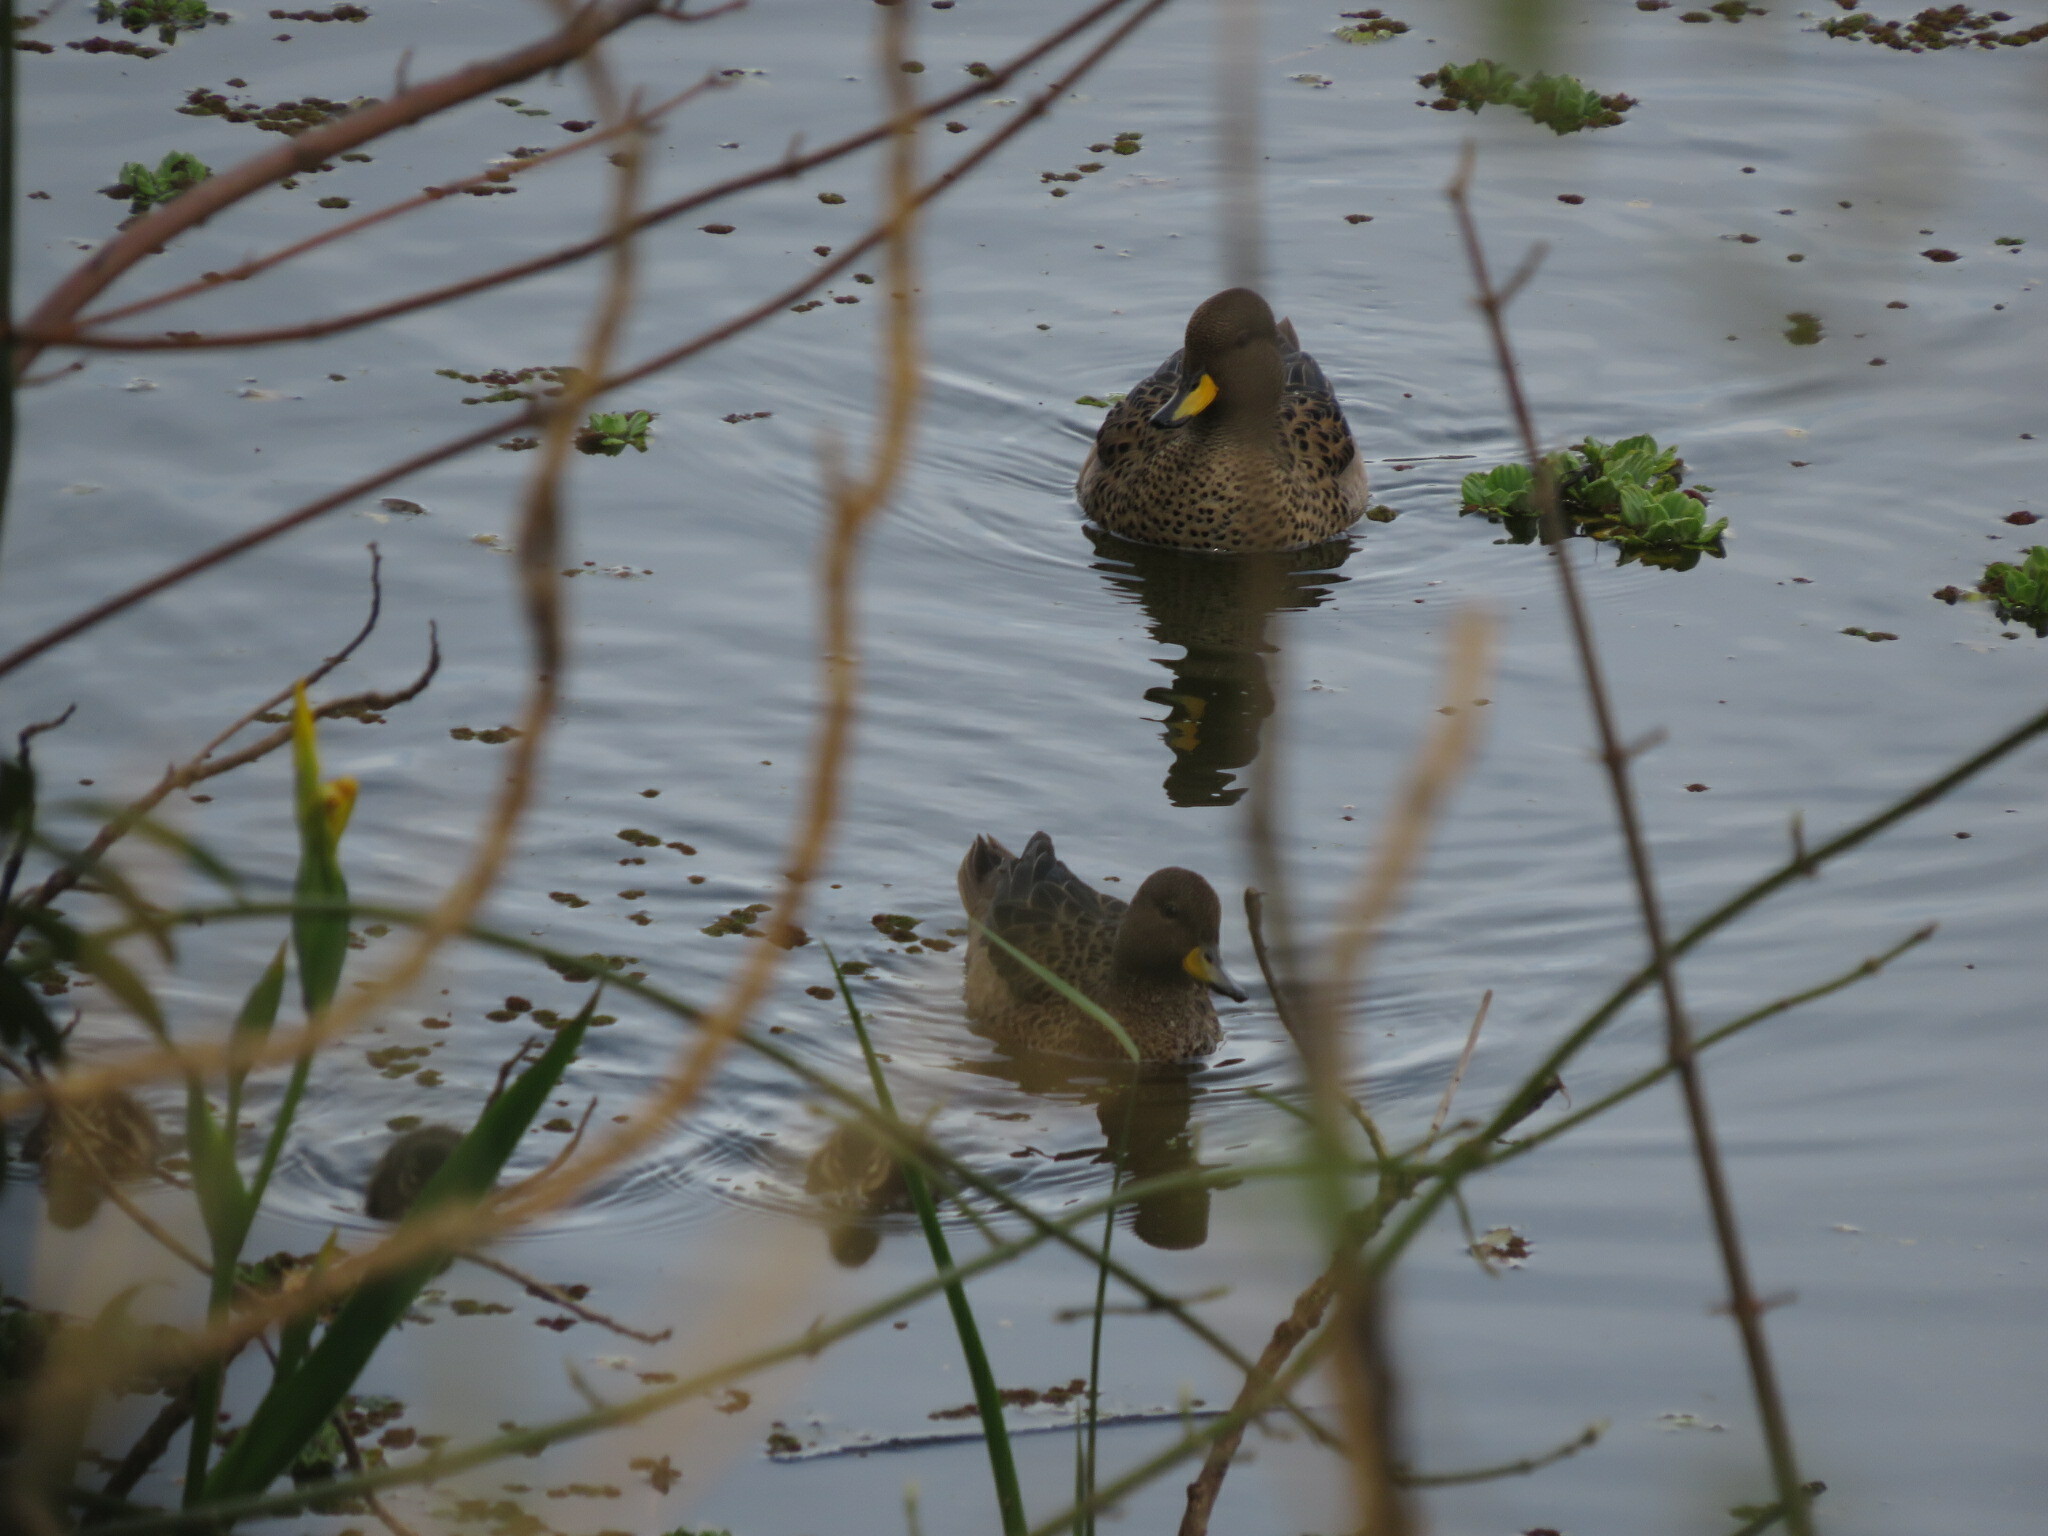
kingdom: Animalia
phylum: Chordata
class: Aves
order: Anseriformes
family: Anatidae
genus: Anas
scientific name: Anas flavirostris
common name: Yellow-billed teal
